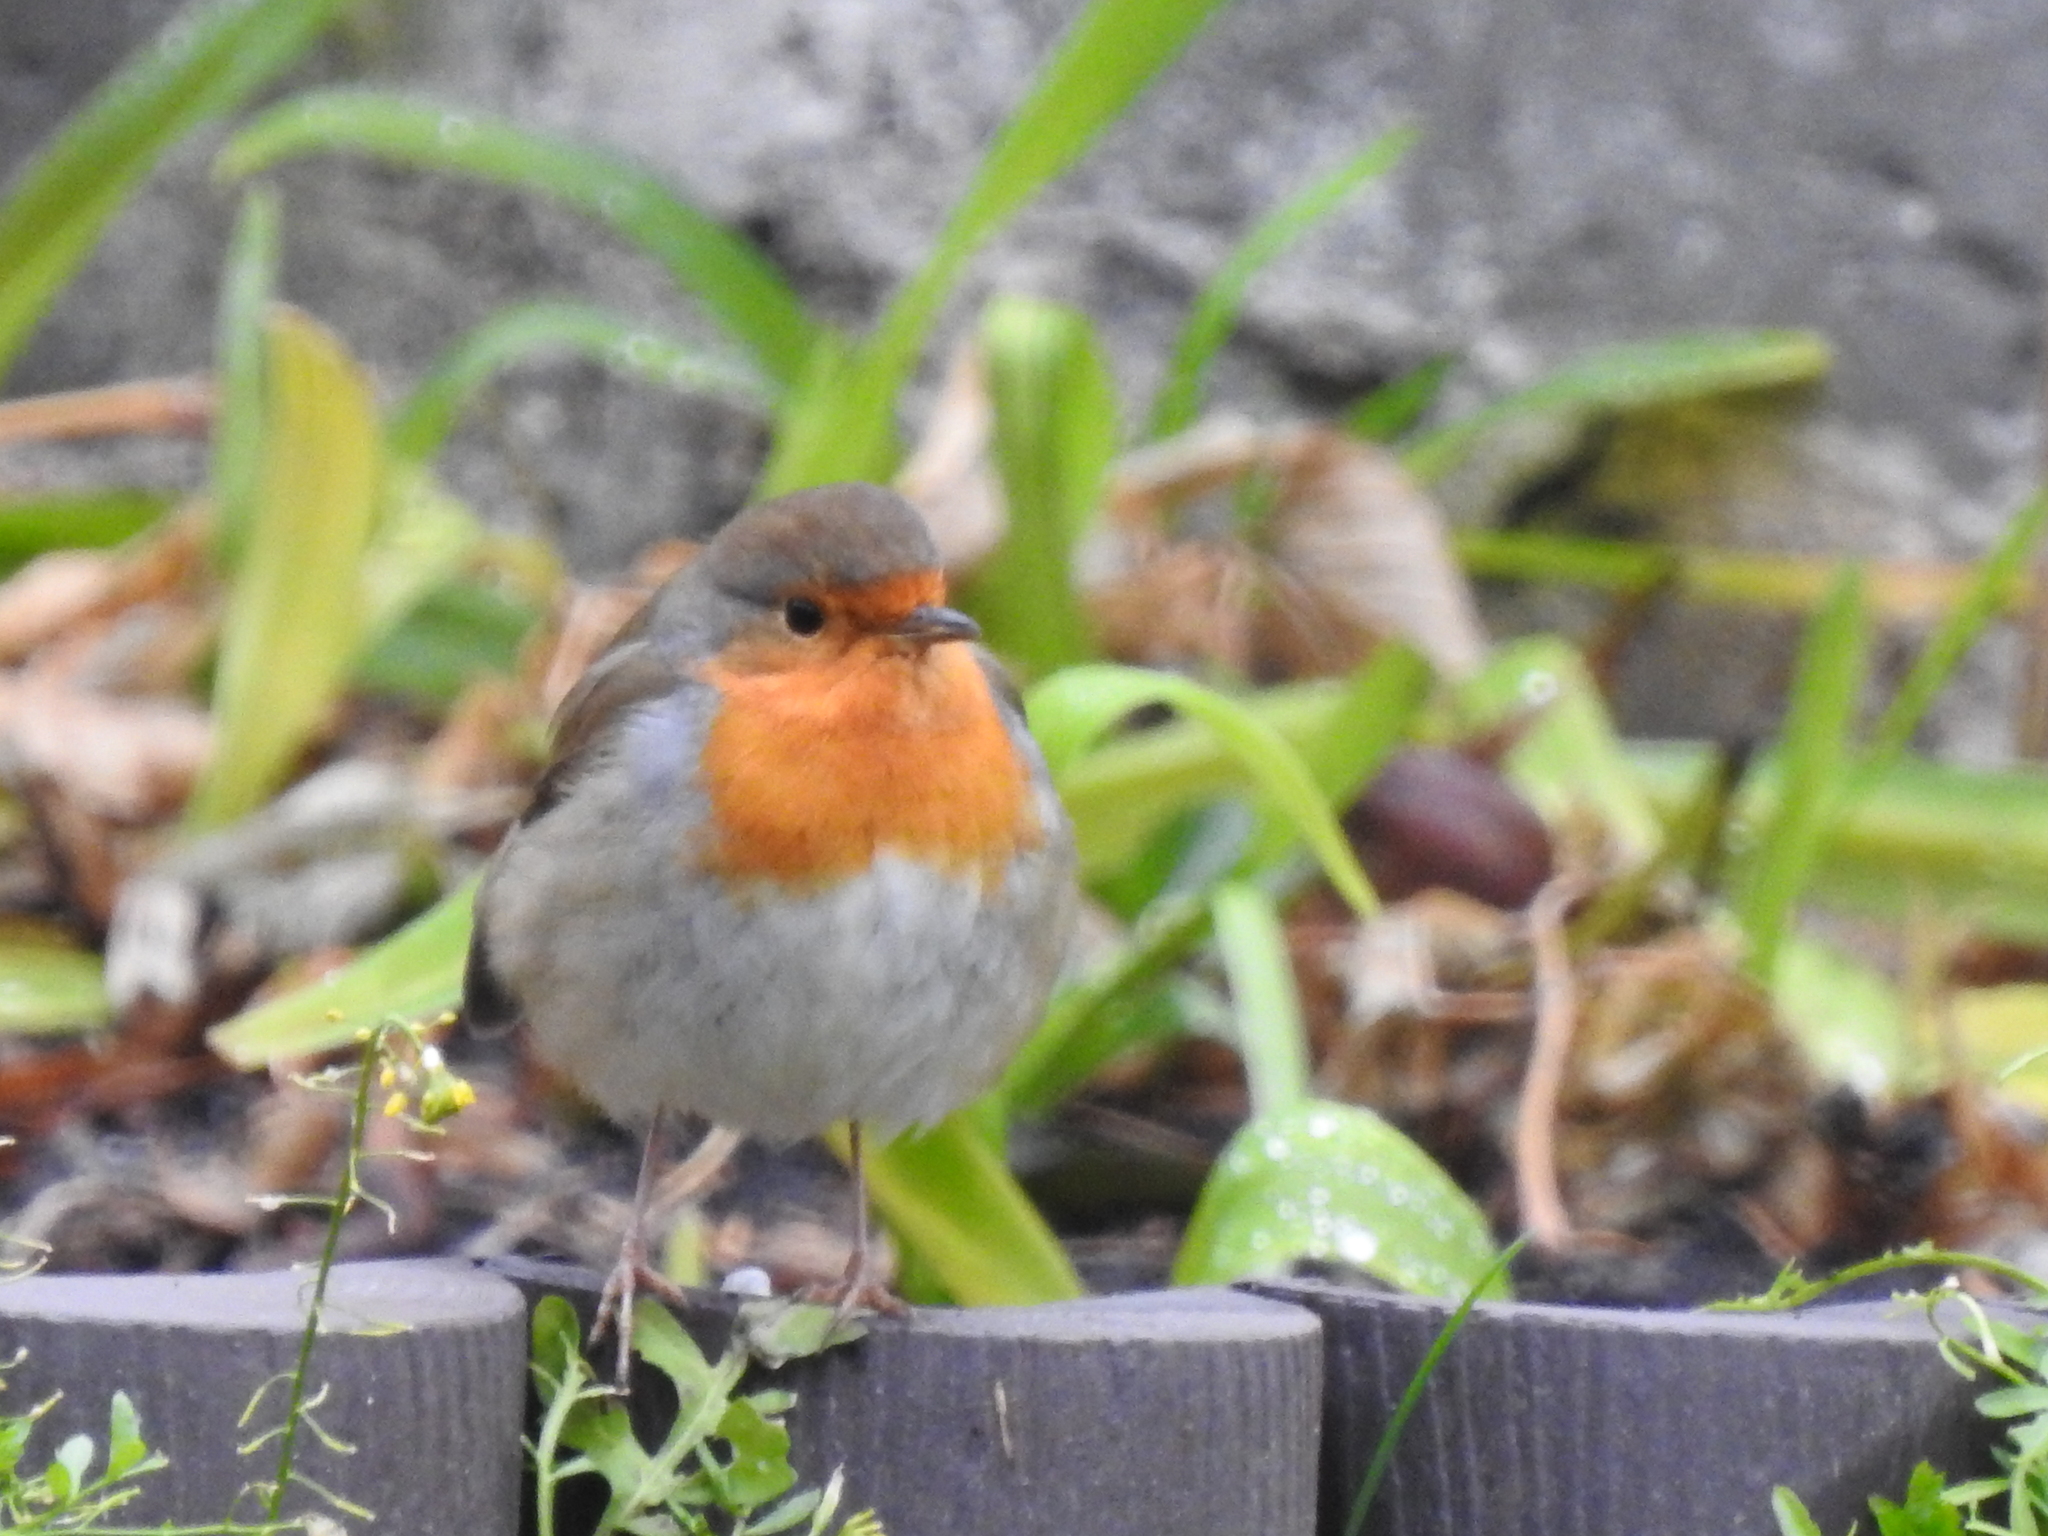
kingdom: Animalia
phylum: Chordata
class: Aves
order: Passeriformes
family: Muscicapidae
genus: Erithacus
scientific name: Erithacus rubecula
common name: European robin
